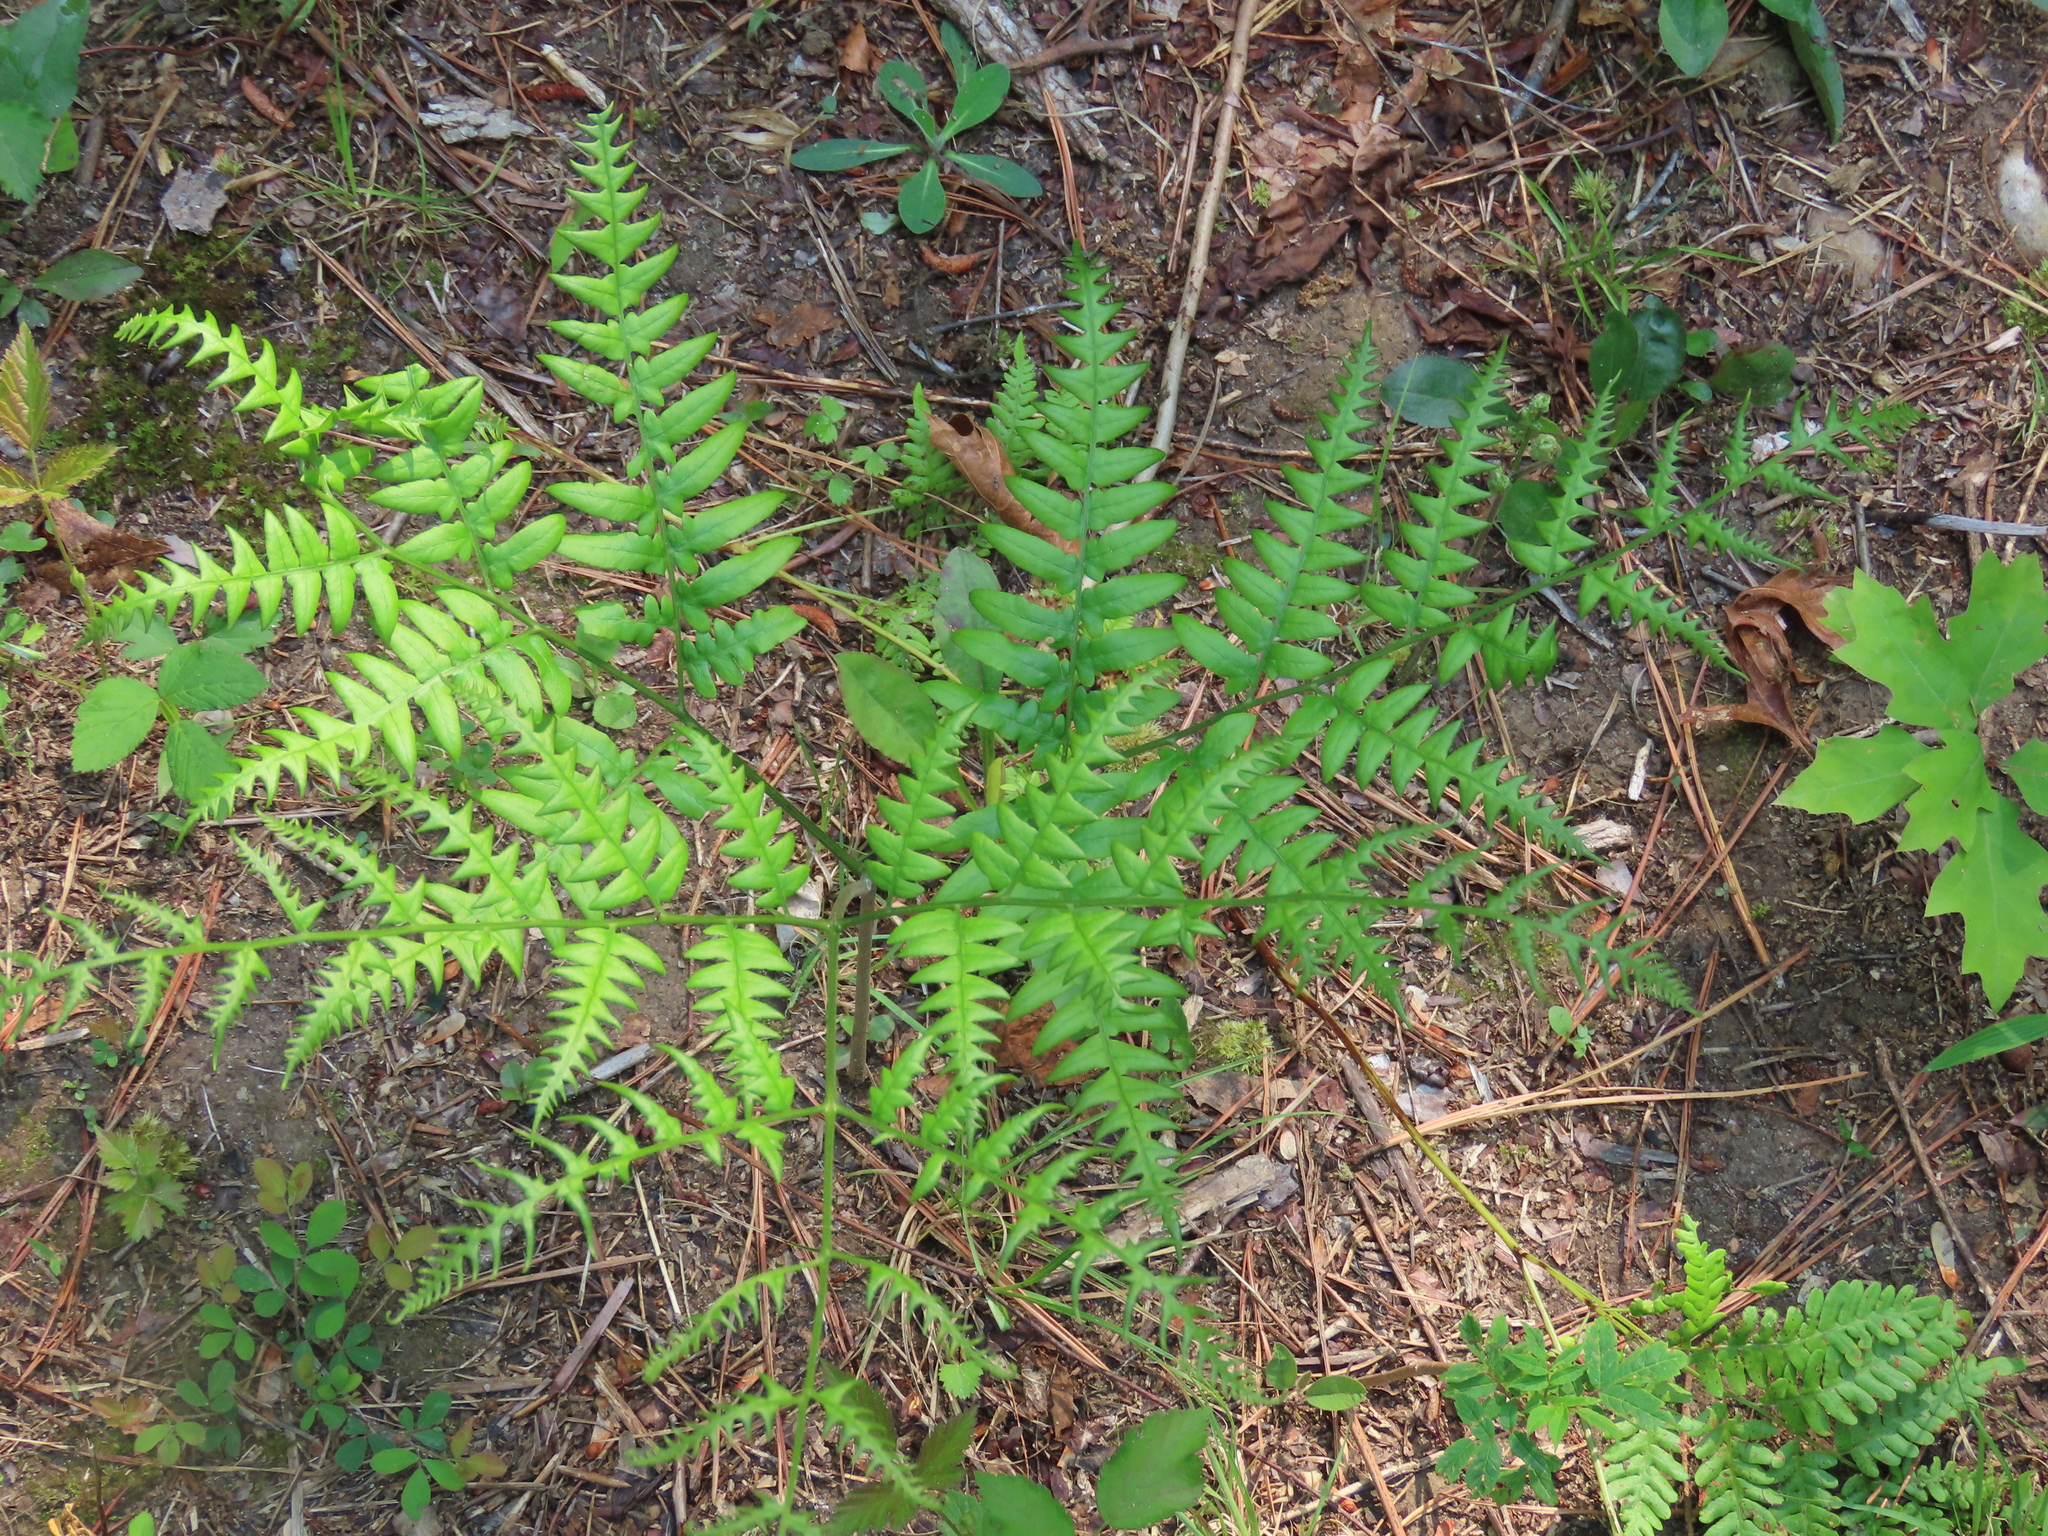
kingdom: Plantae
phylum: Tracheophyta
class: Polypodiopsida
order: Polypodiales
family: Dennstaedtiaceae
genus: Pteridium
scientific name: Pteridium aquilinum
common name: Bracken
